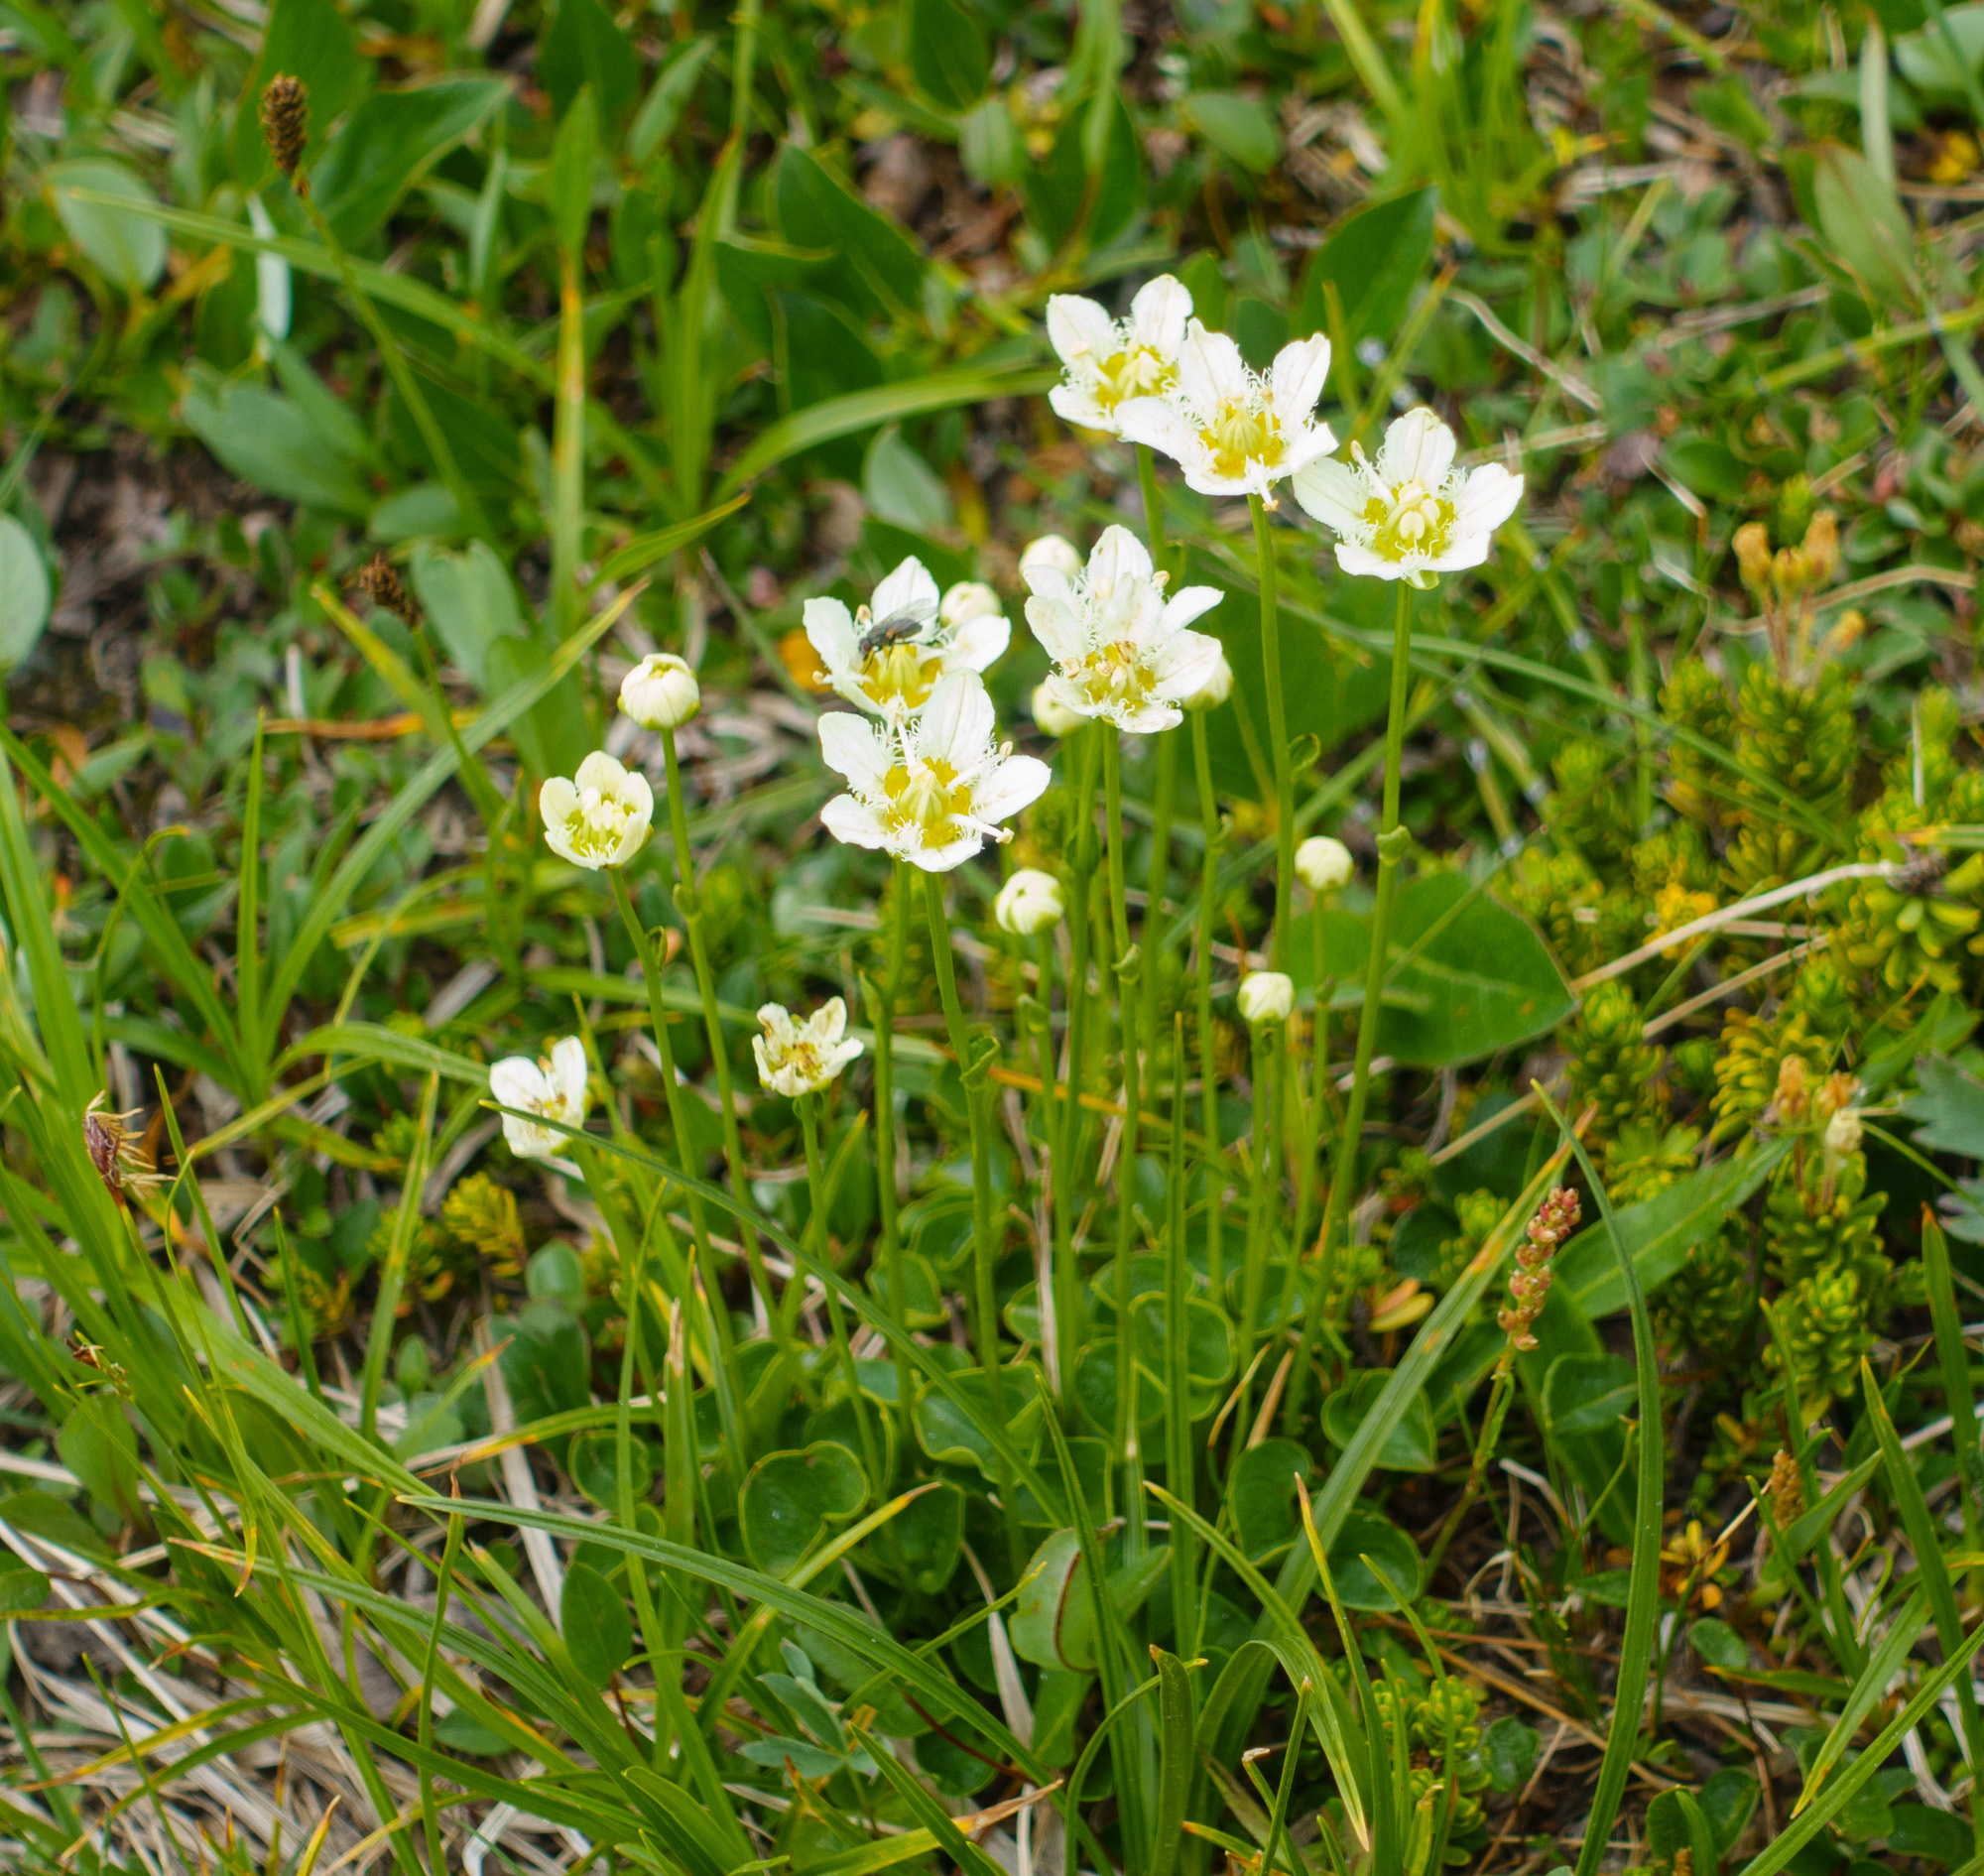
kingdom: Plantae
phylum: Tracheophyta
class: Magnoliopsida
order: Celastrales
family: Parnassiaceae
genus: Parnassia
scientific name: Parnassia fimbriata
